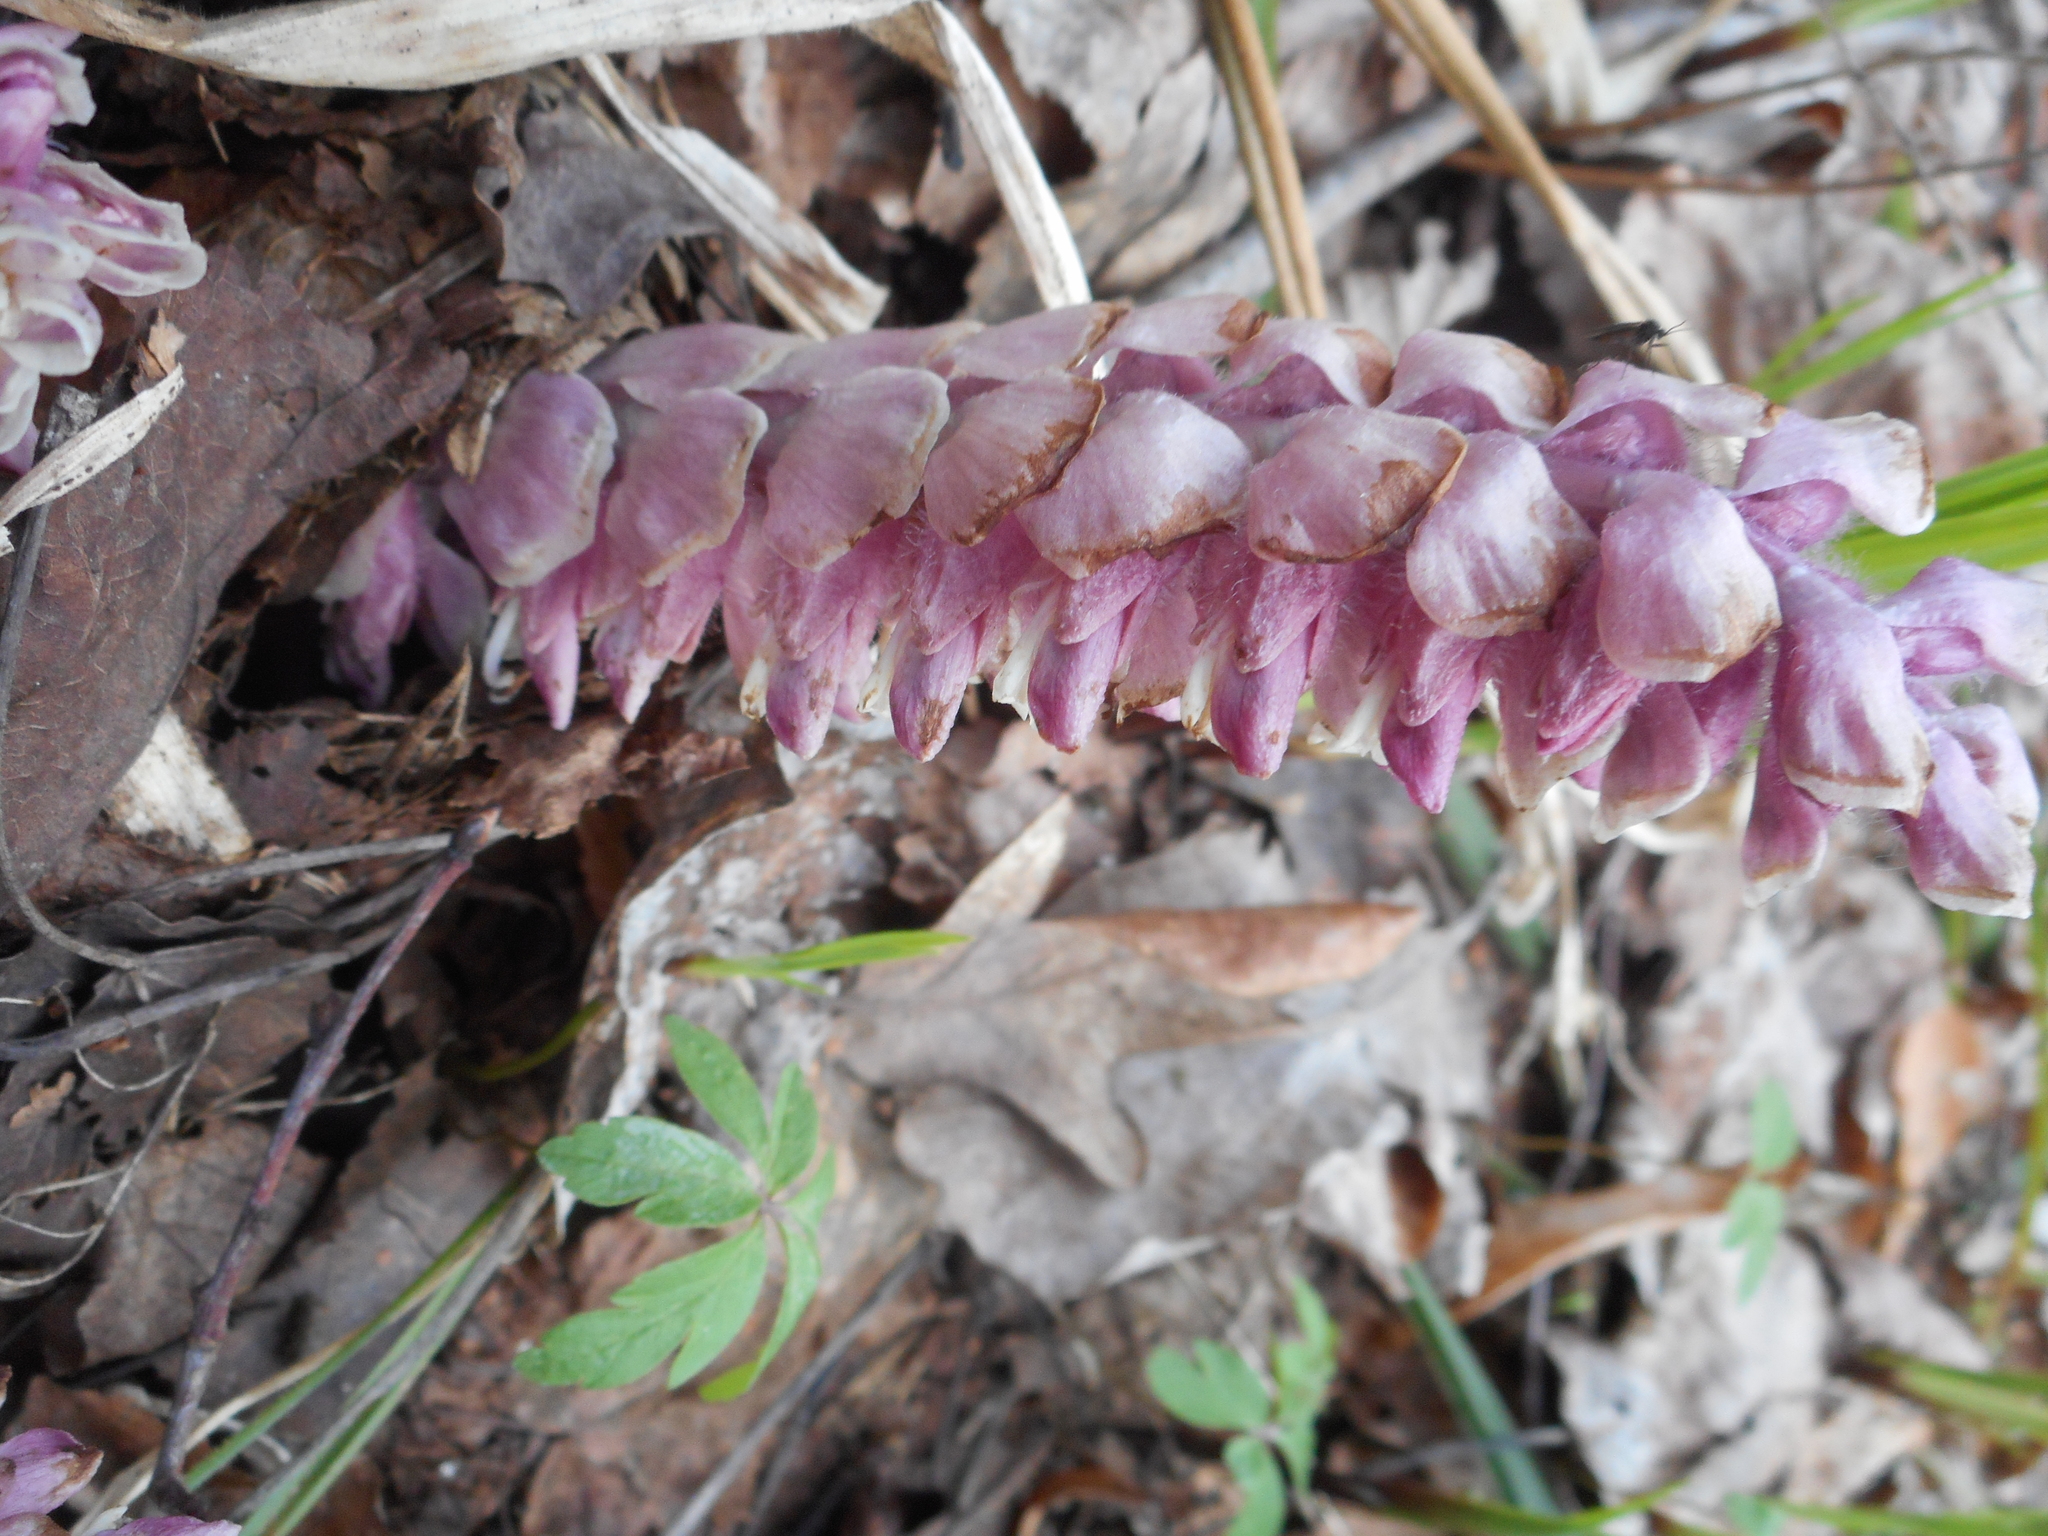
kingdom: Plantae
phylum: Tracheophyta
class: Magnoliopsida
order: Lamiales
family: Orobanchaceae
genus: Lathraea
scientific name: Lathraea squamaria
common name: Toothwort
